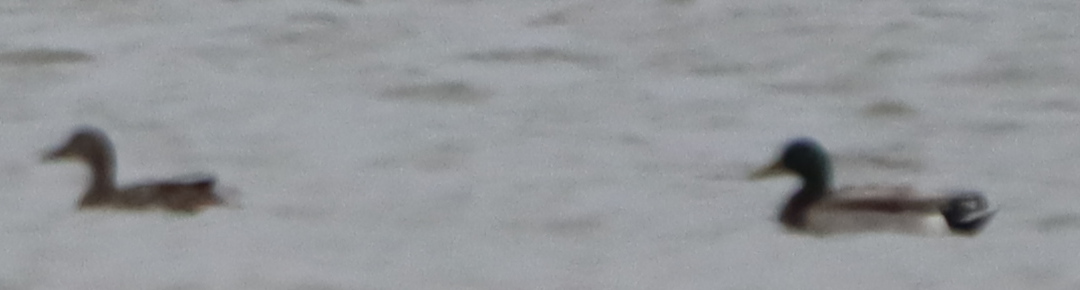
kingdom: Animalia
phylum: Chordata
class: Aves
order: Anseriformes
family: Anatidae
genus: Anas
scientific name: Anas platyrhynchos
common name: Mallard
